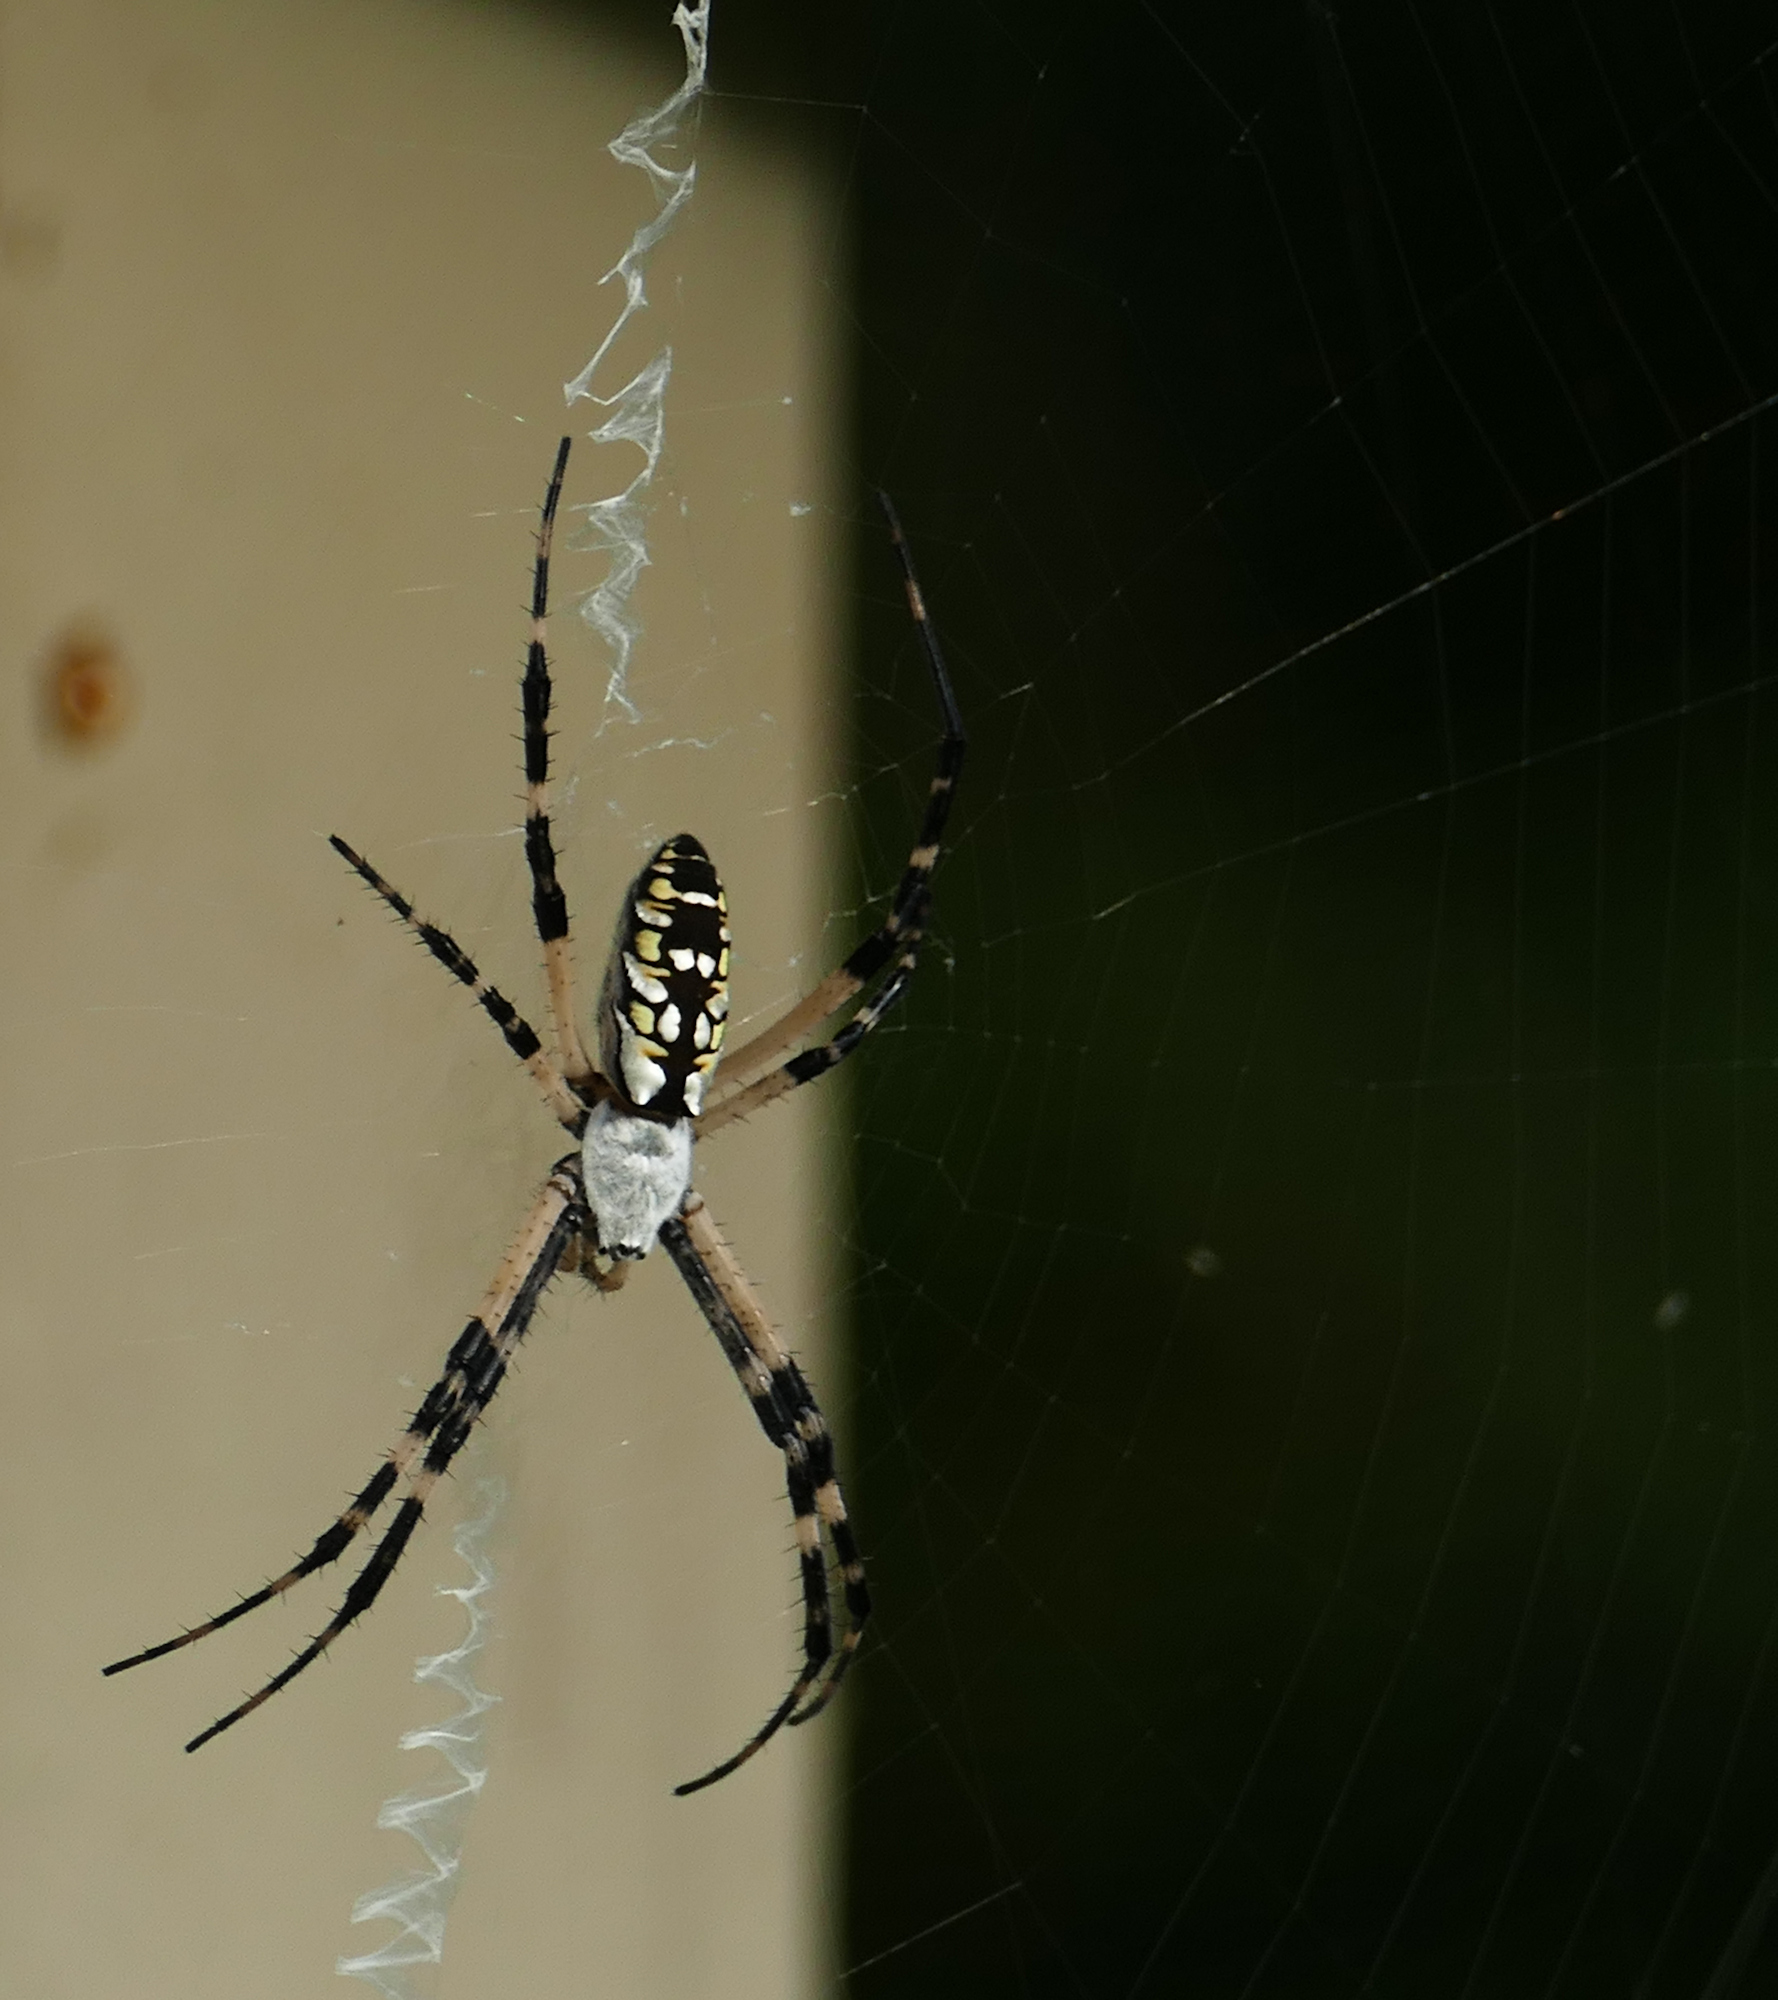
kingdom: Animalia
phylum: Arthropoda
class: Arachnida
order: Araneae
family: Araneidae
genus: Argiope
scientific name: Argiope aurantia
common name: Orb weavers
